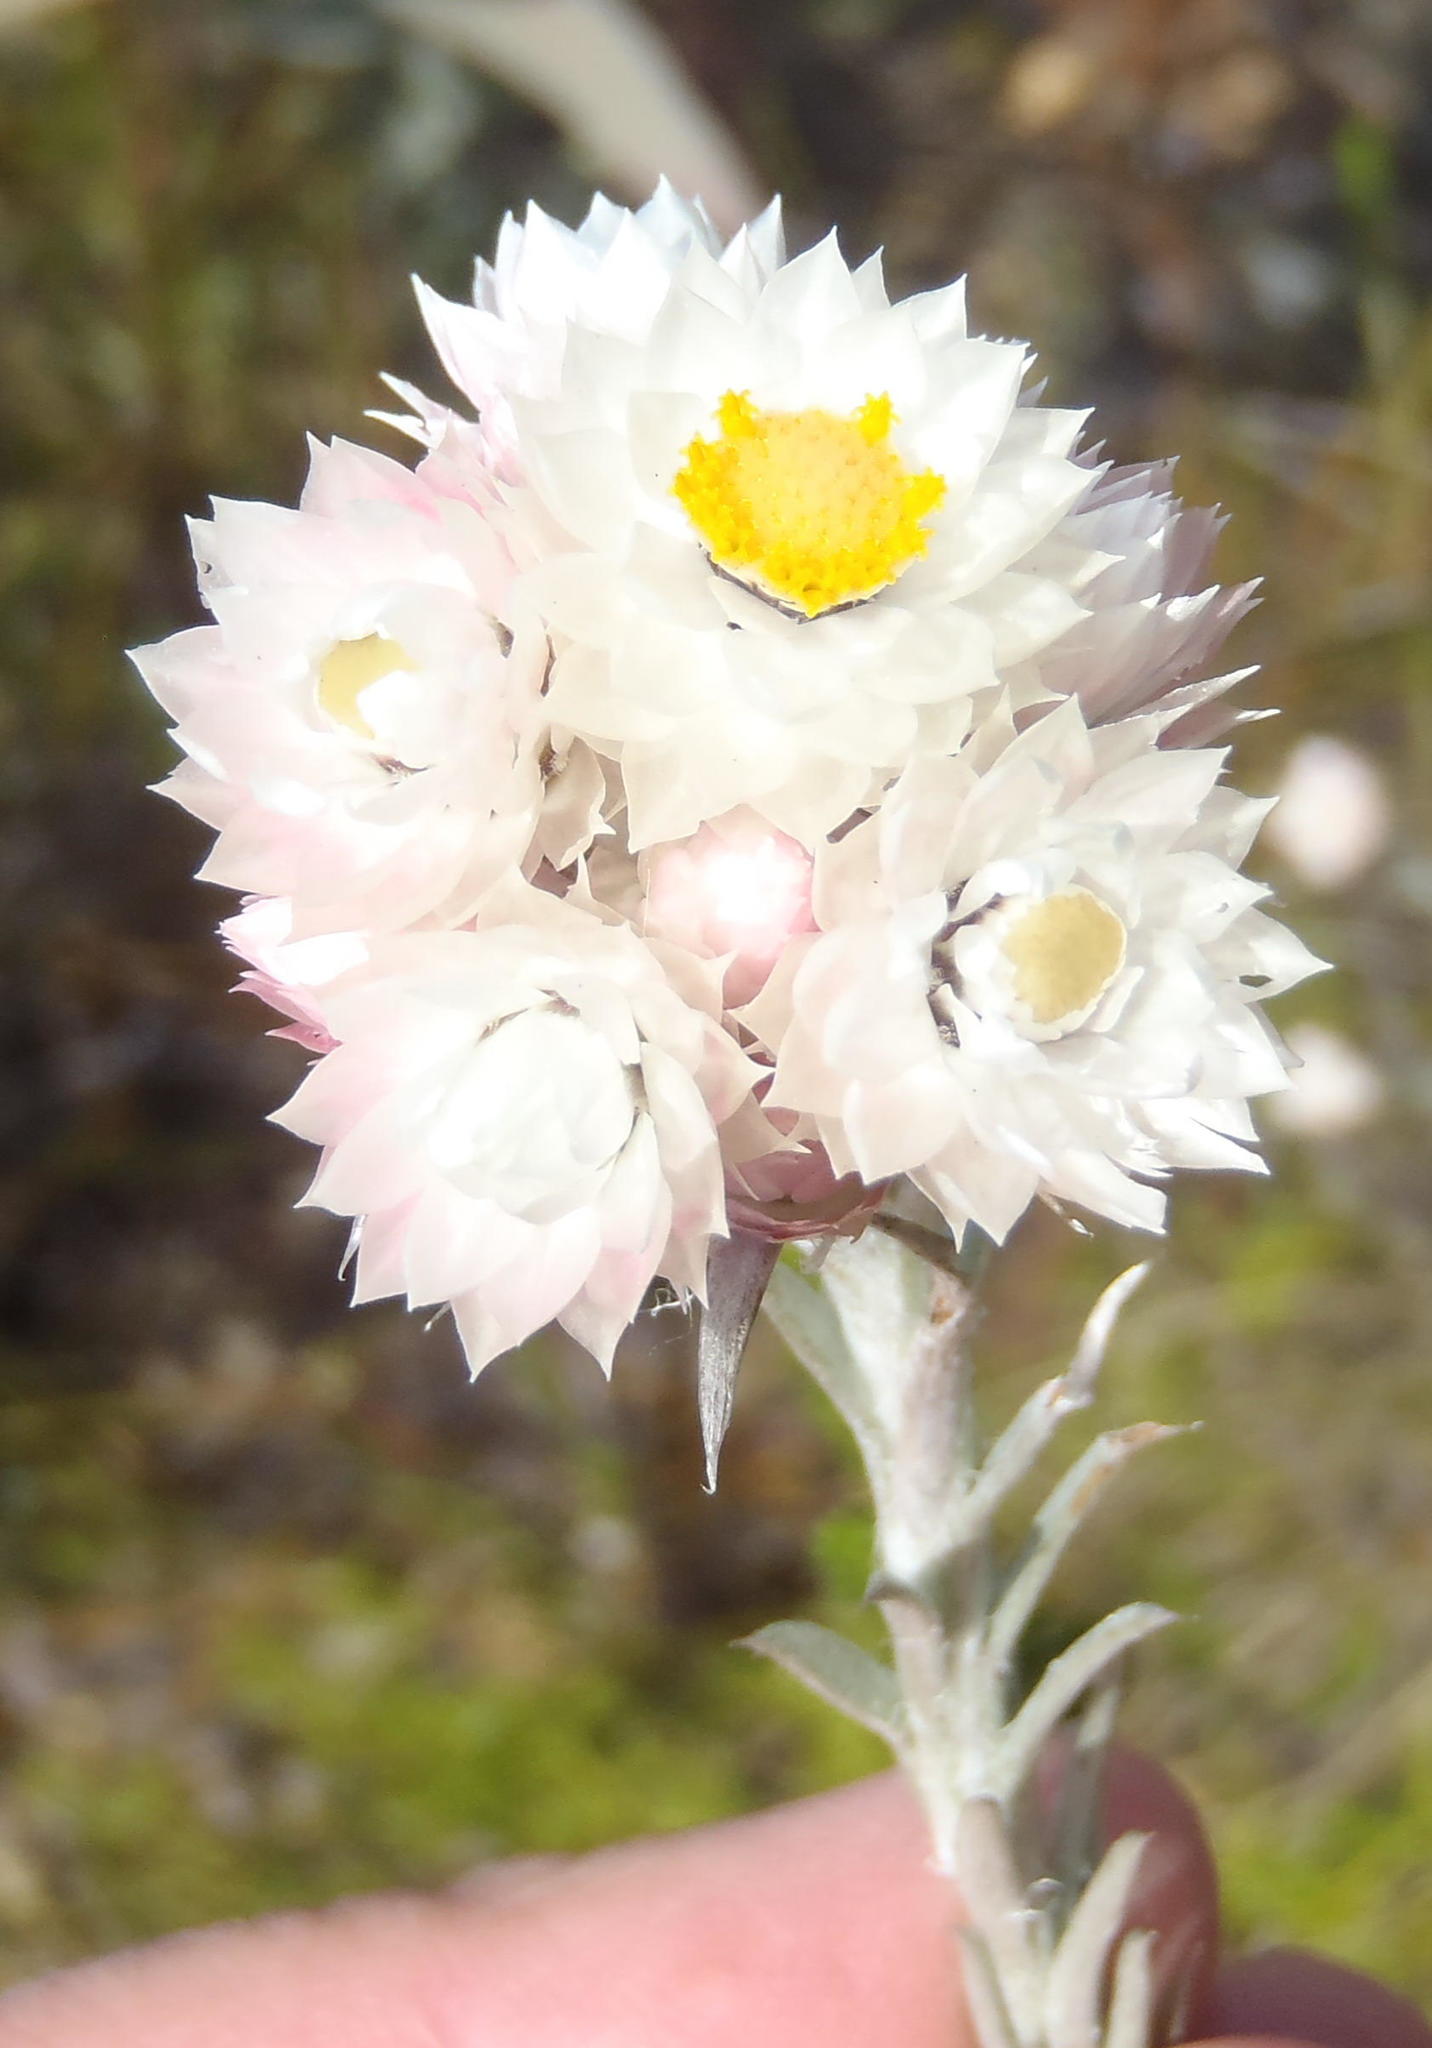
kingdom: Plantae
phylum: Tracheophyta
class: Magnoliopsida
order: Asterales
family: Asteraceae
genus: Achyranthemum
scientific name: Achyranthemum paniculatum
